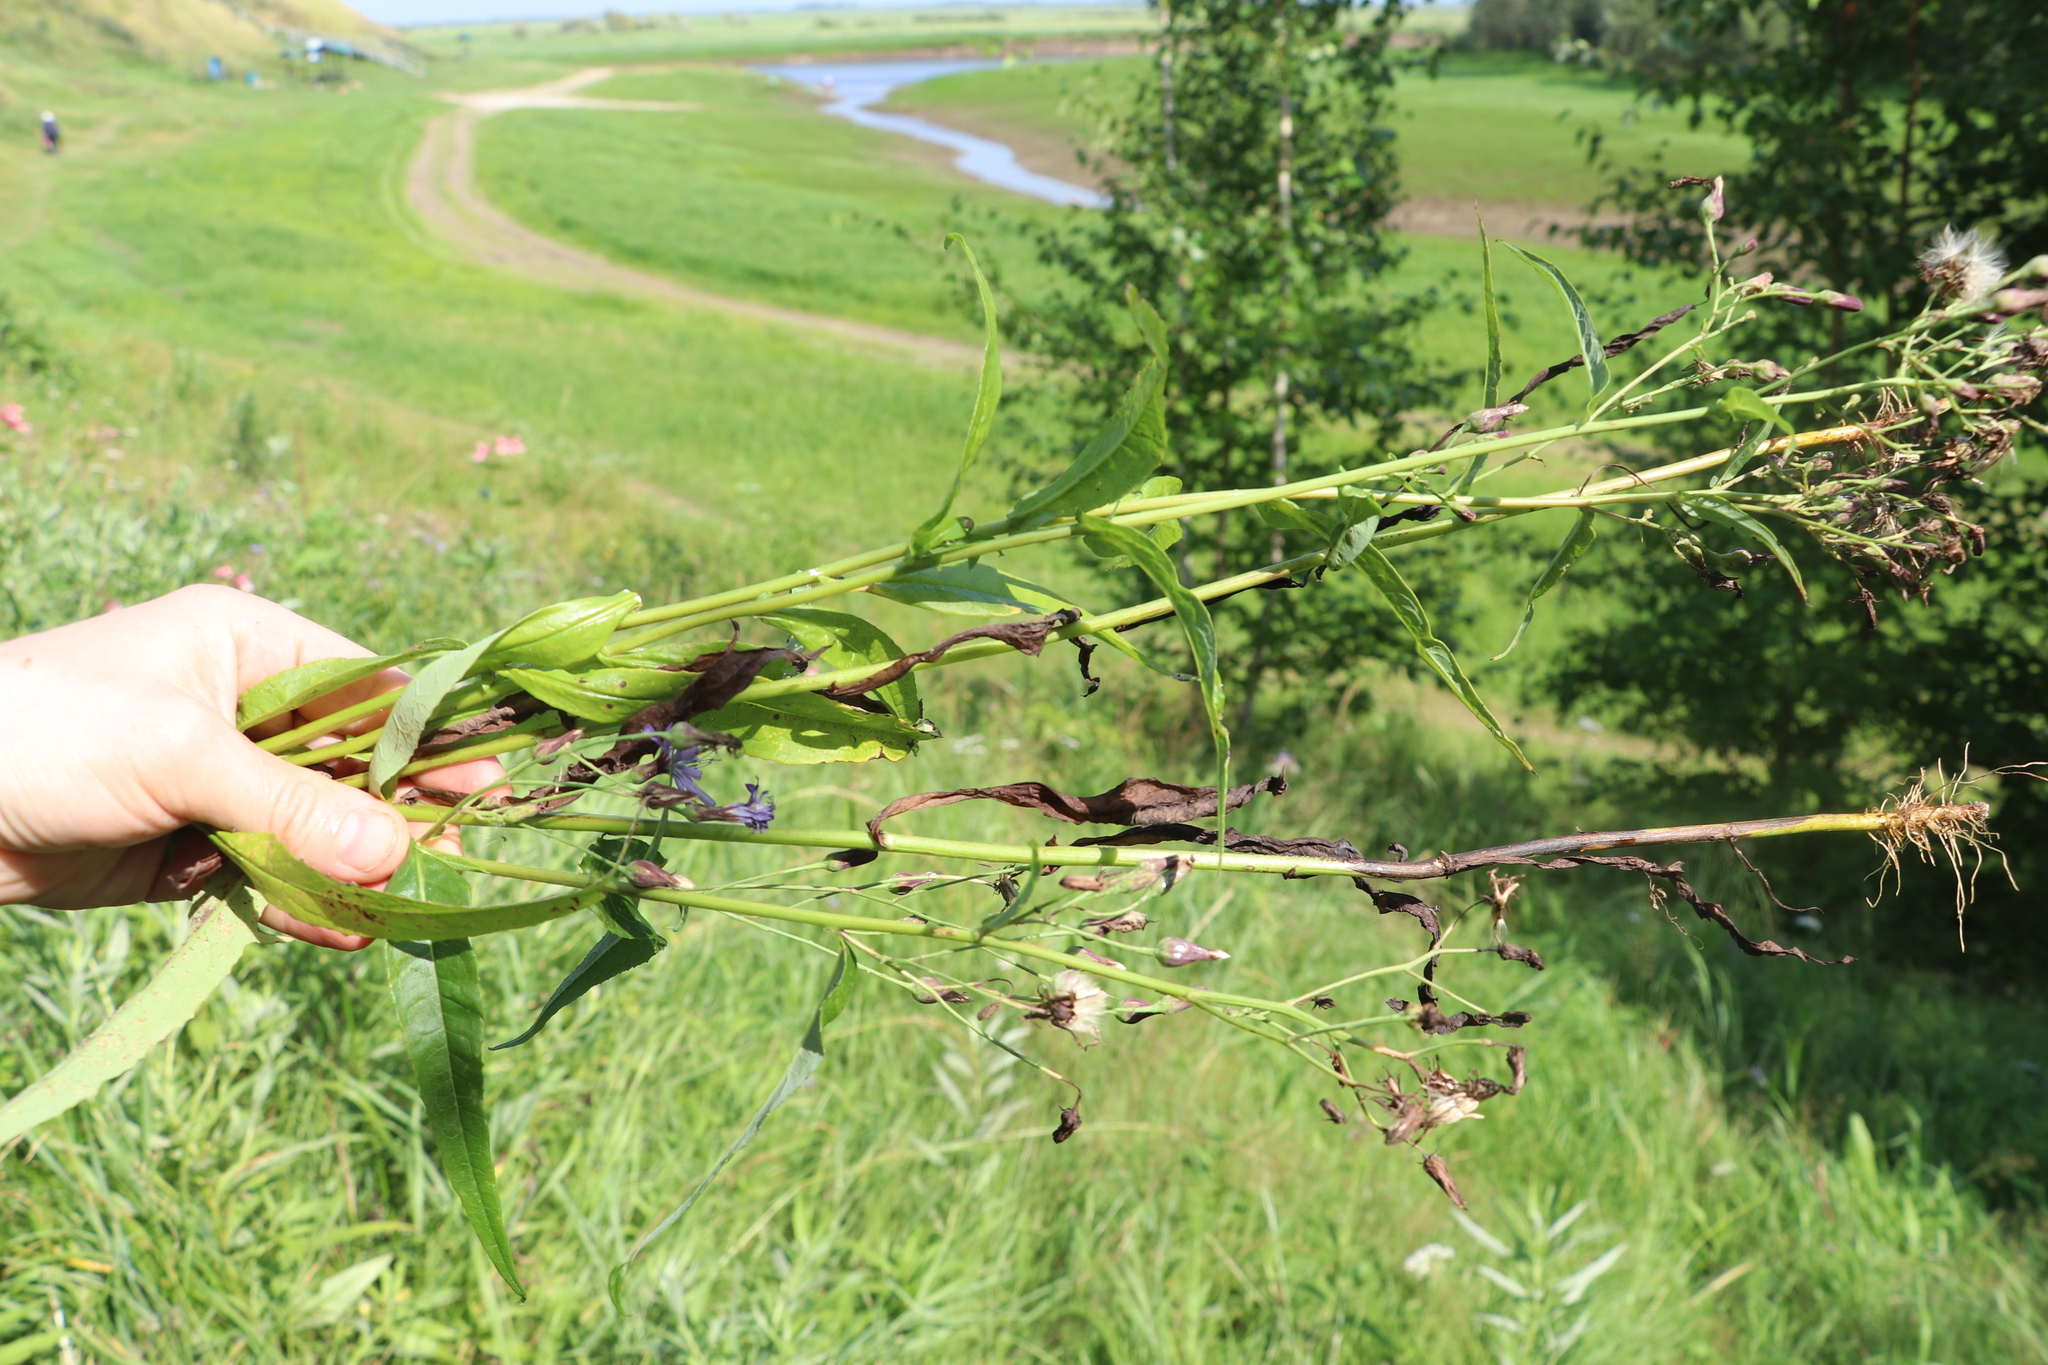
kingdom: Plantae
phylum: Tracheophyta
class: Magnoliopsida
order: Asterales
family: Asteraceae
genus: Lactuca
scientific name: Lactuca sibirica
